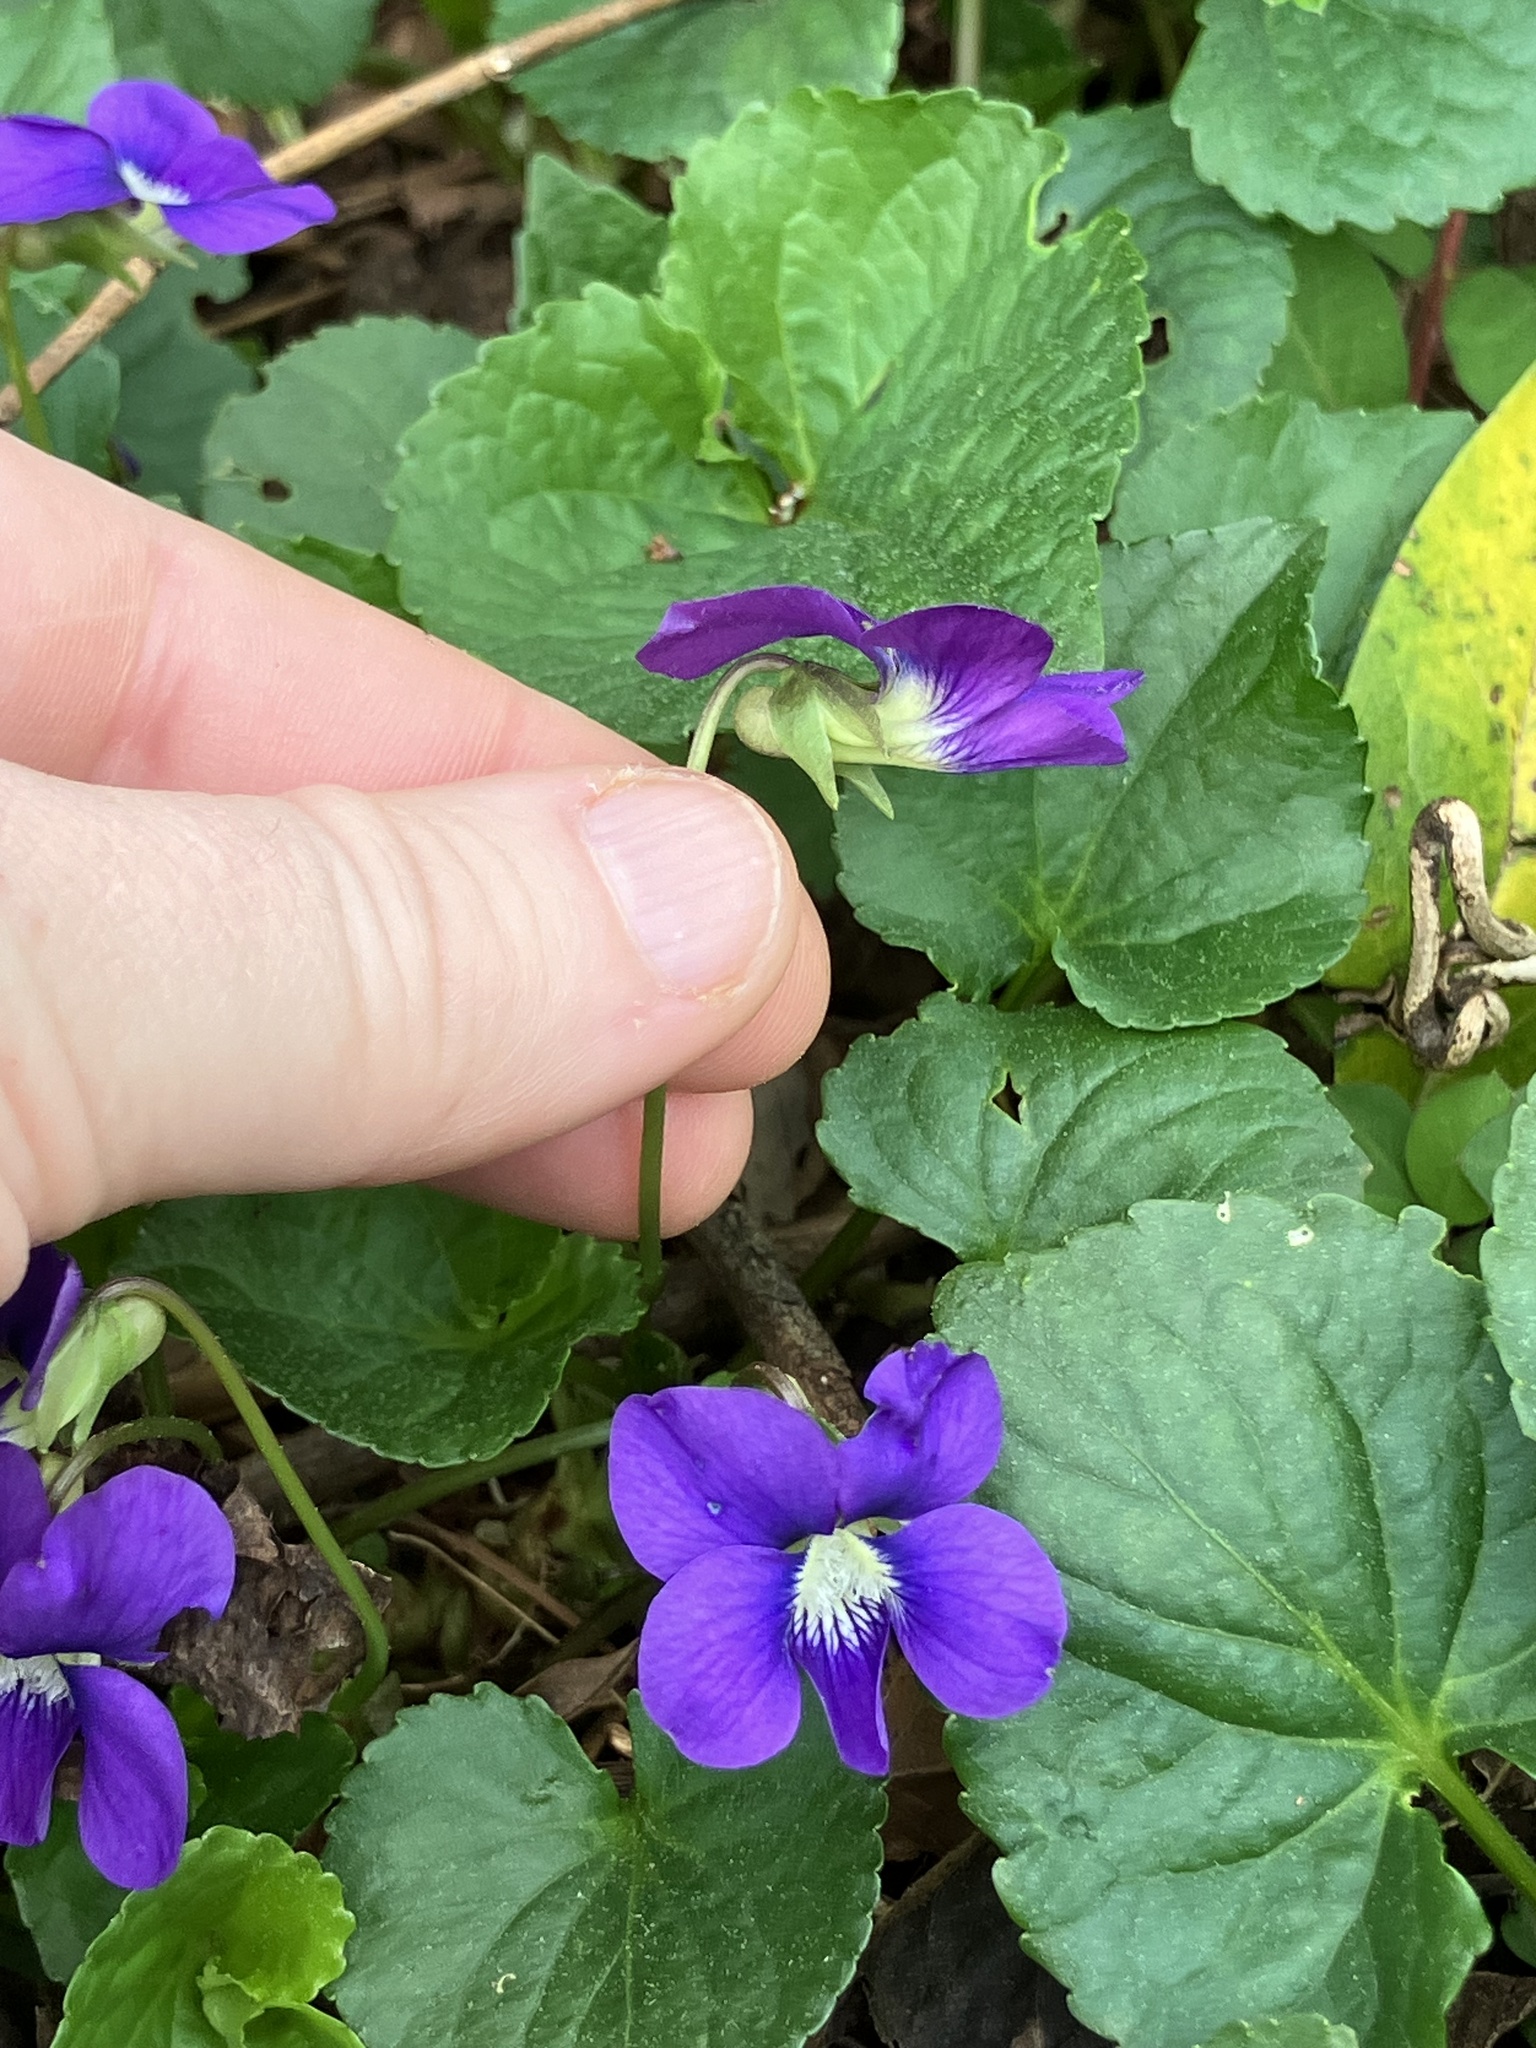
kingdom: Plantae
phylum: Tracheophyta
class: Magnoliopsida
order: Malpighiales
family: Violaceae
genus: Viola
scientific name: Viola sororia
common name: Dooryard violet
